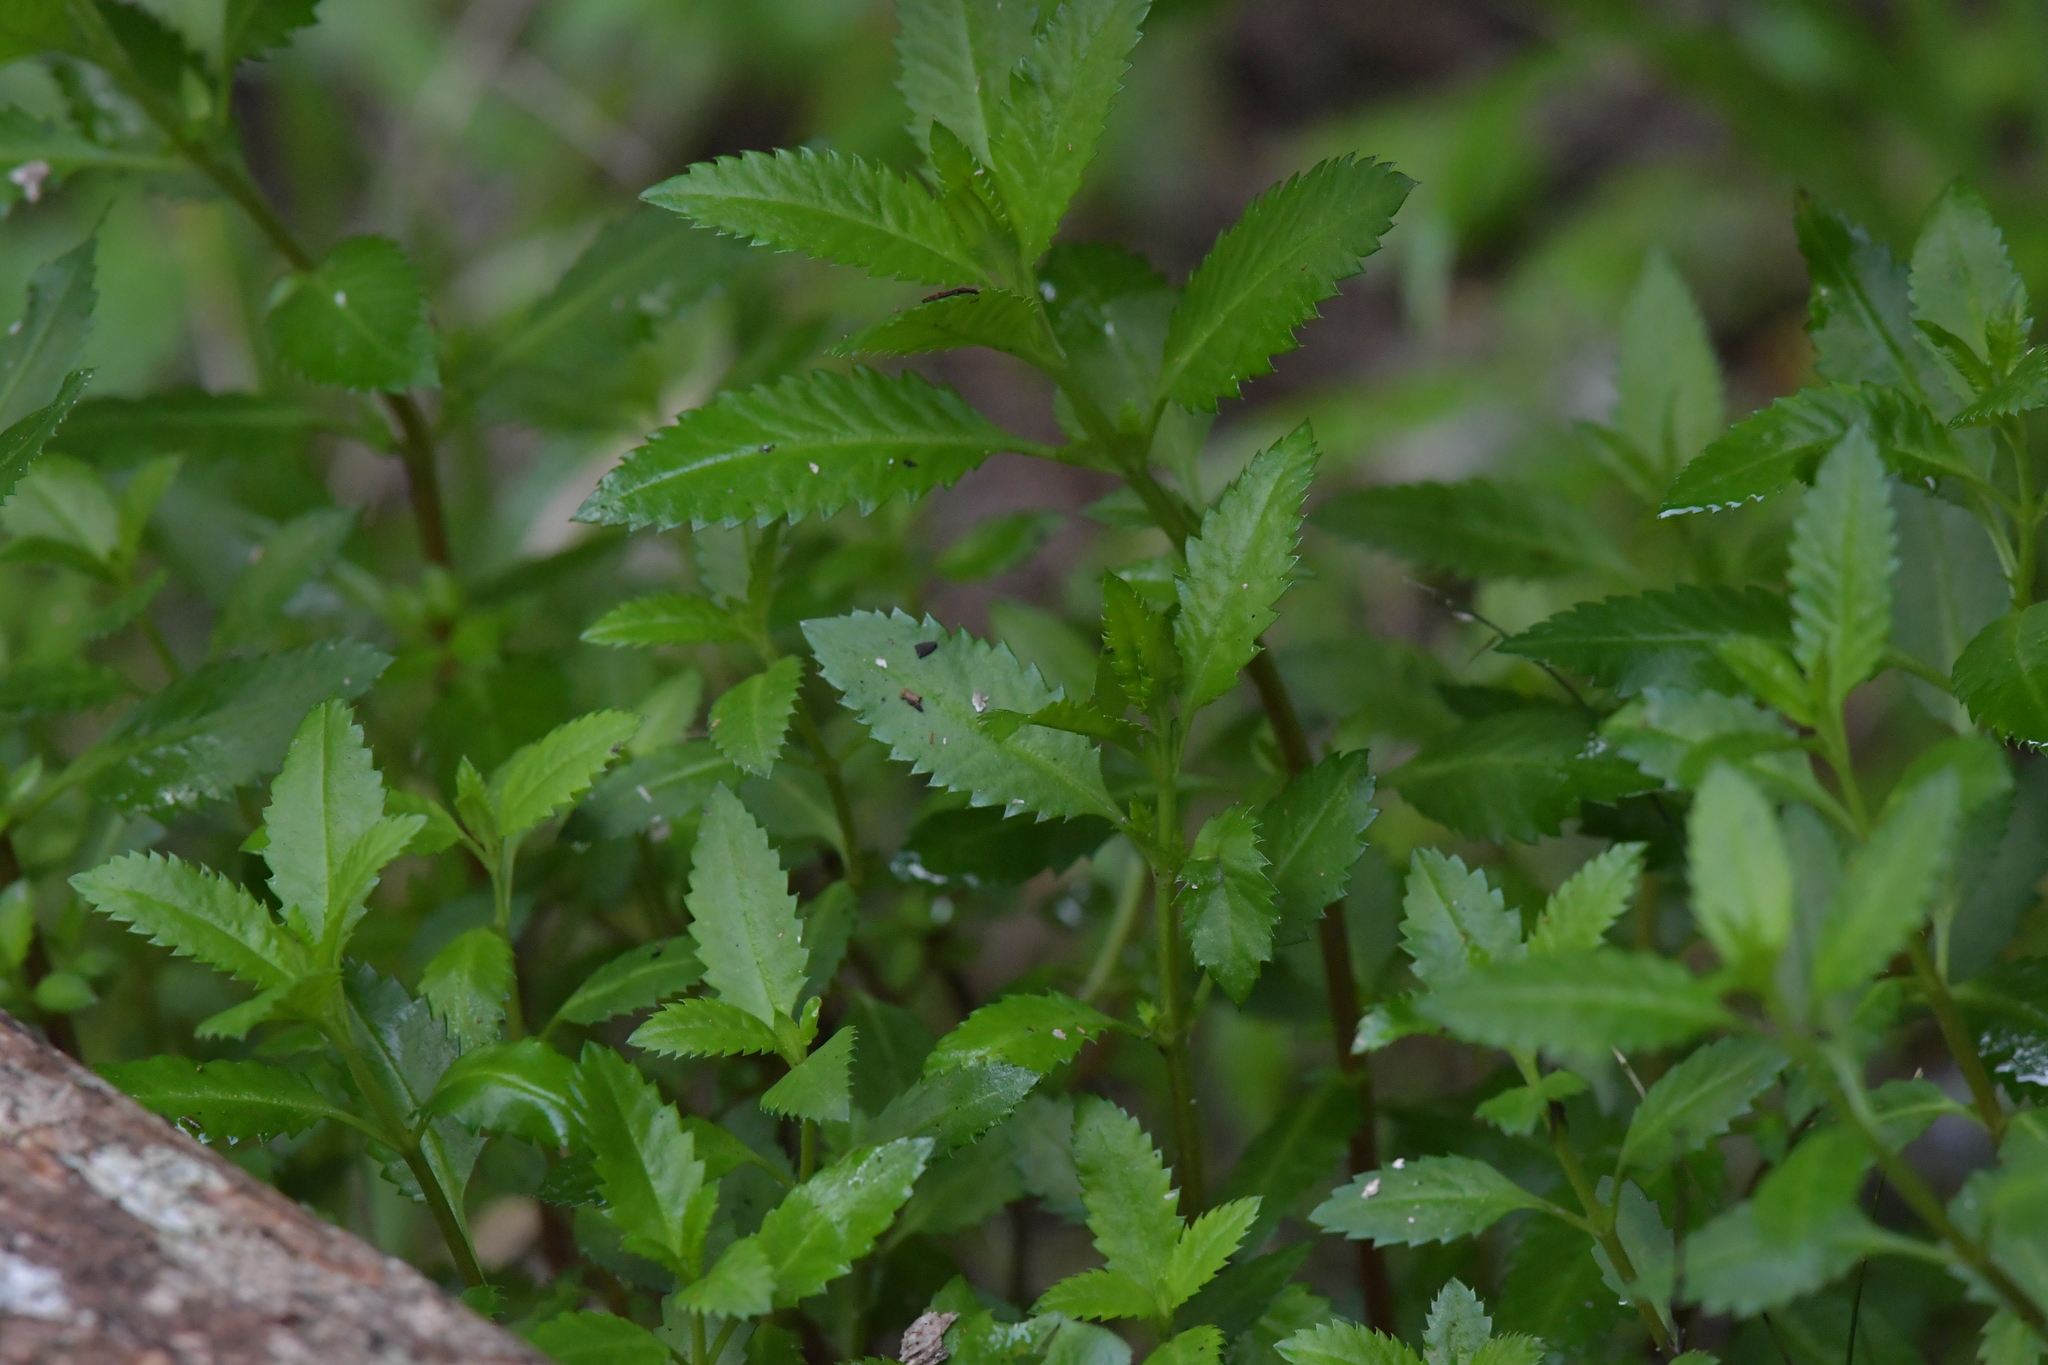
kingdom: Plantae
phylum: Tracheophyta
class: Magnoliopsida
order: Saxifragales
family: Haloragaceae
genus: Haloragis
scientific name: Haloragis erecta
